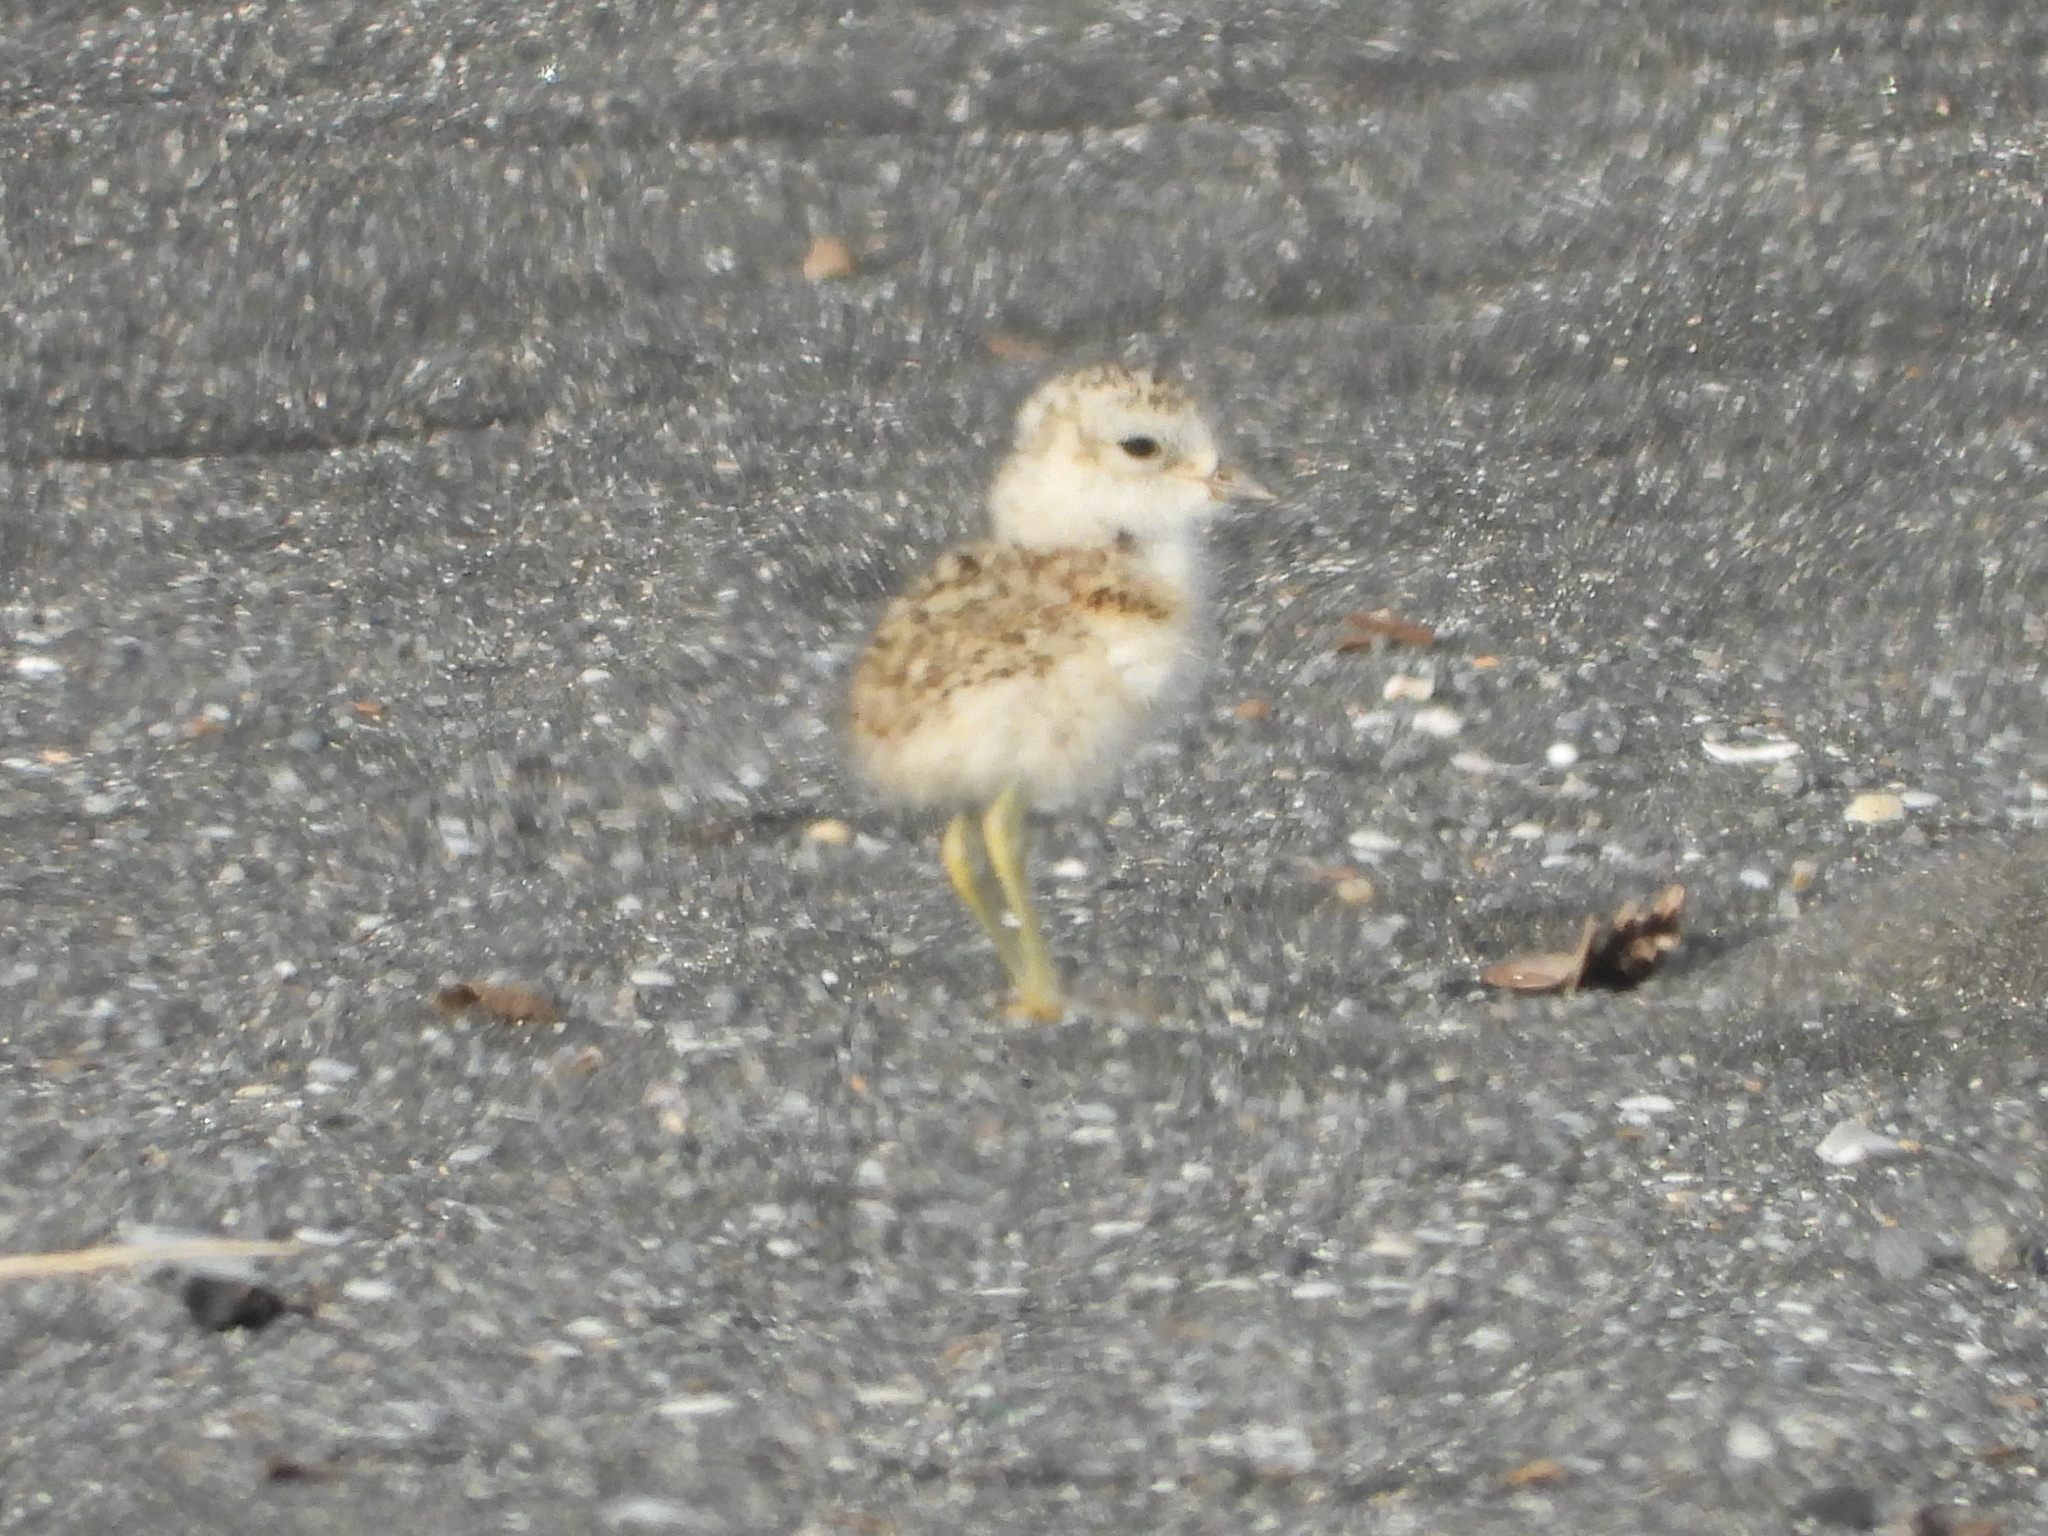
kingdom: Animalia
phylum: Chordata
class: Aves
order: Charadriiformes
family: Charadriidae
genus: Anarhynchus
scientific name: Anarhynchus
